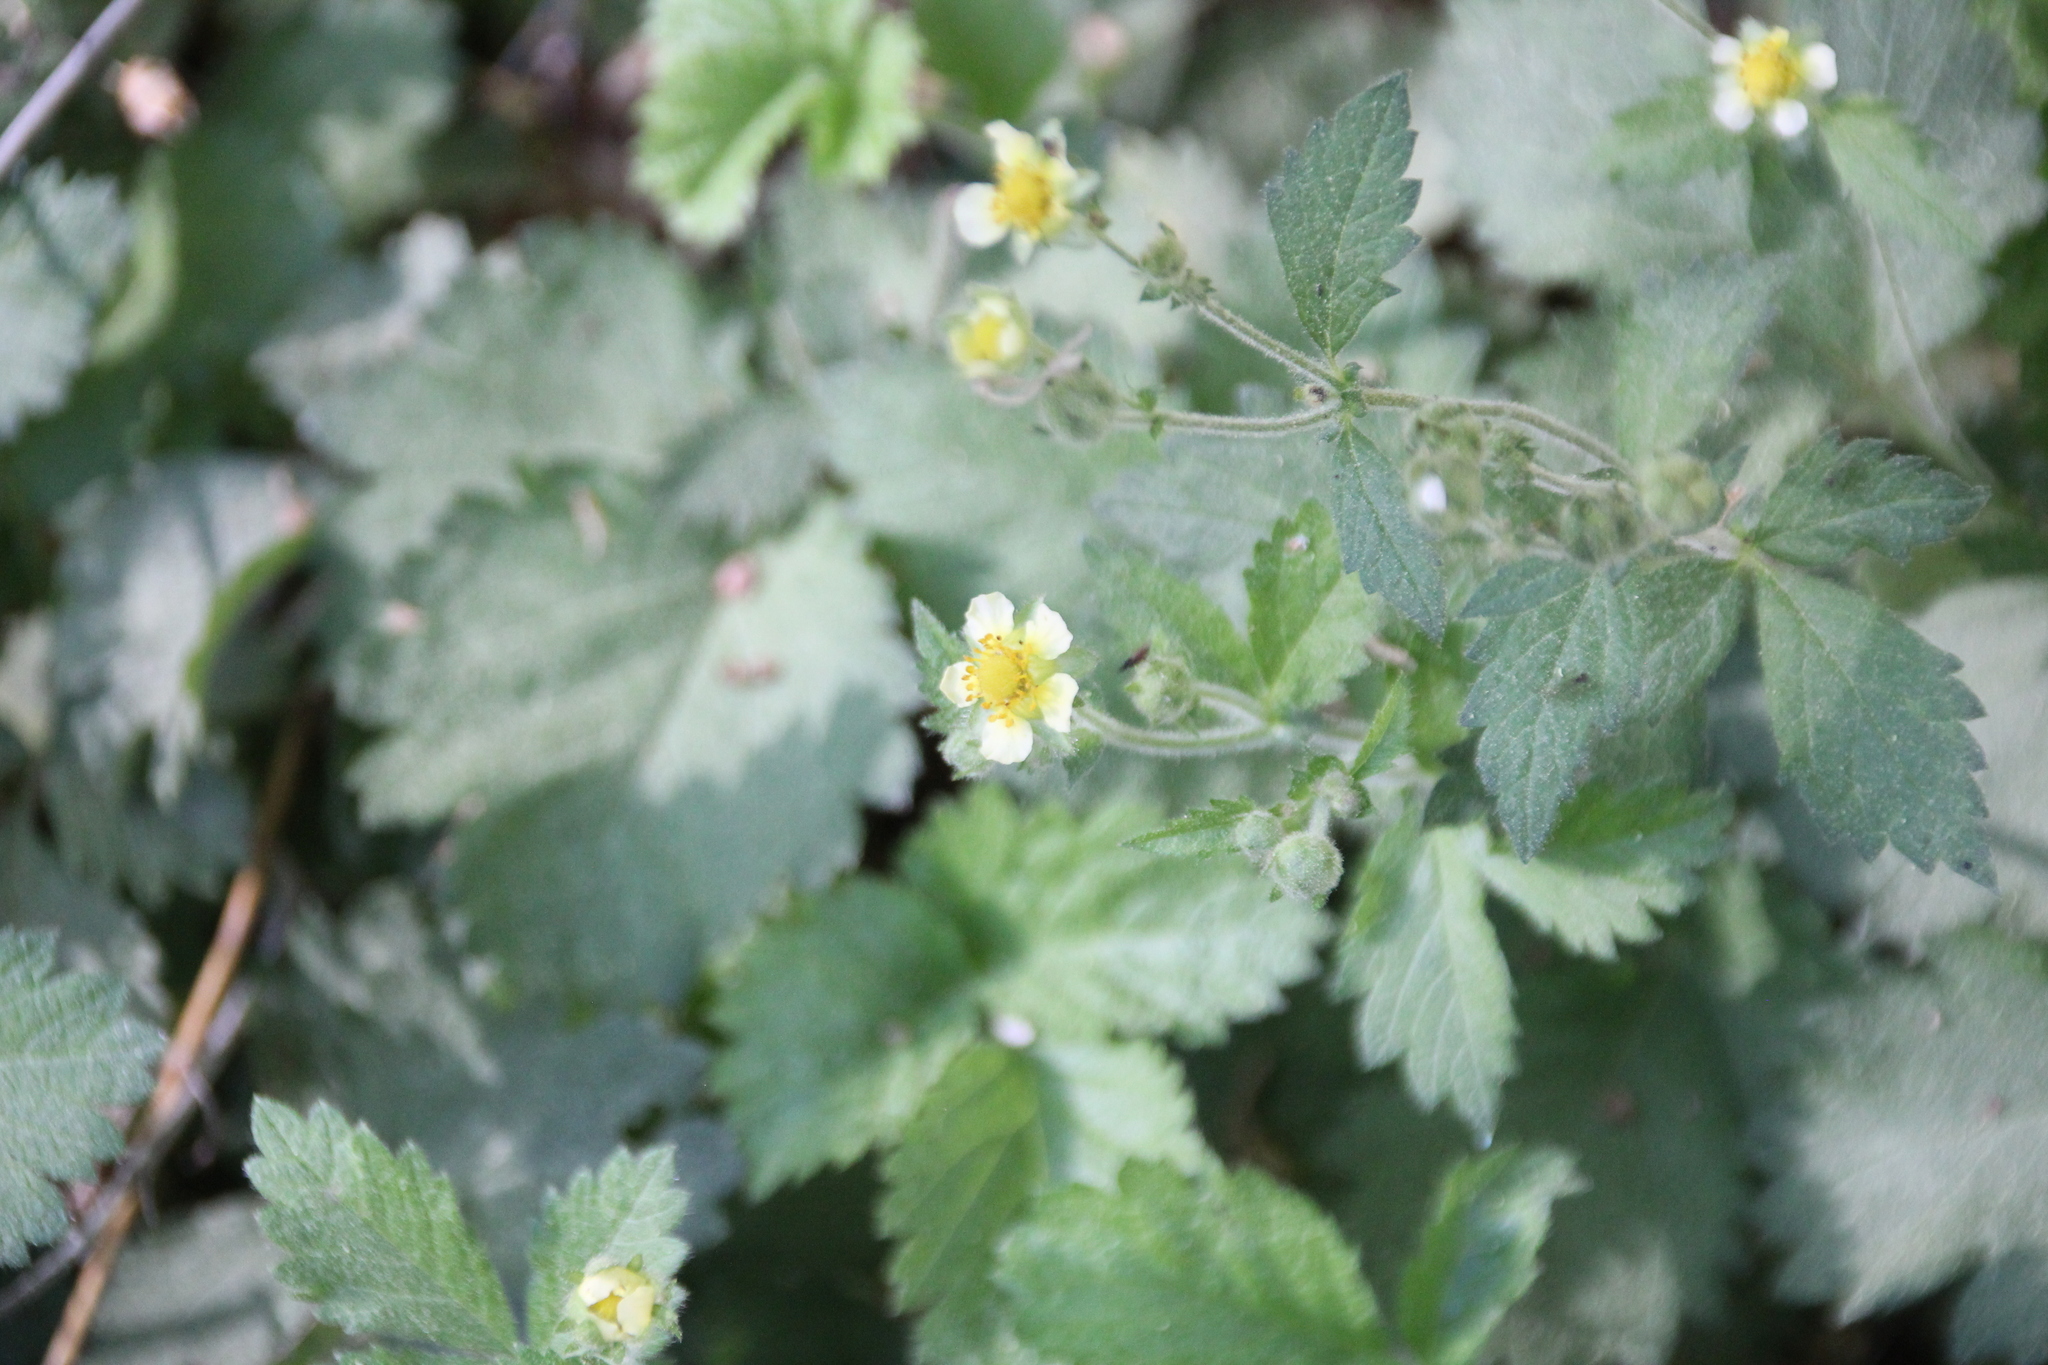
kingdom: Plantae
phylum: Tracheophyta
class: Magnoliopsida
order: Rosales
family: Rosaceae
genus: Drymocallis
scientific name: Drymocallis glandulosa
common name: Sticky cinquefoil
